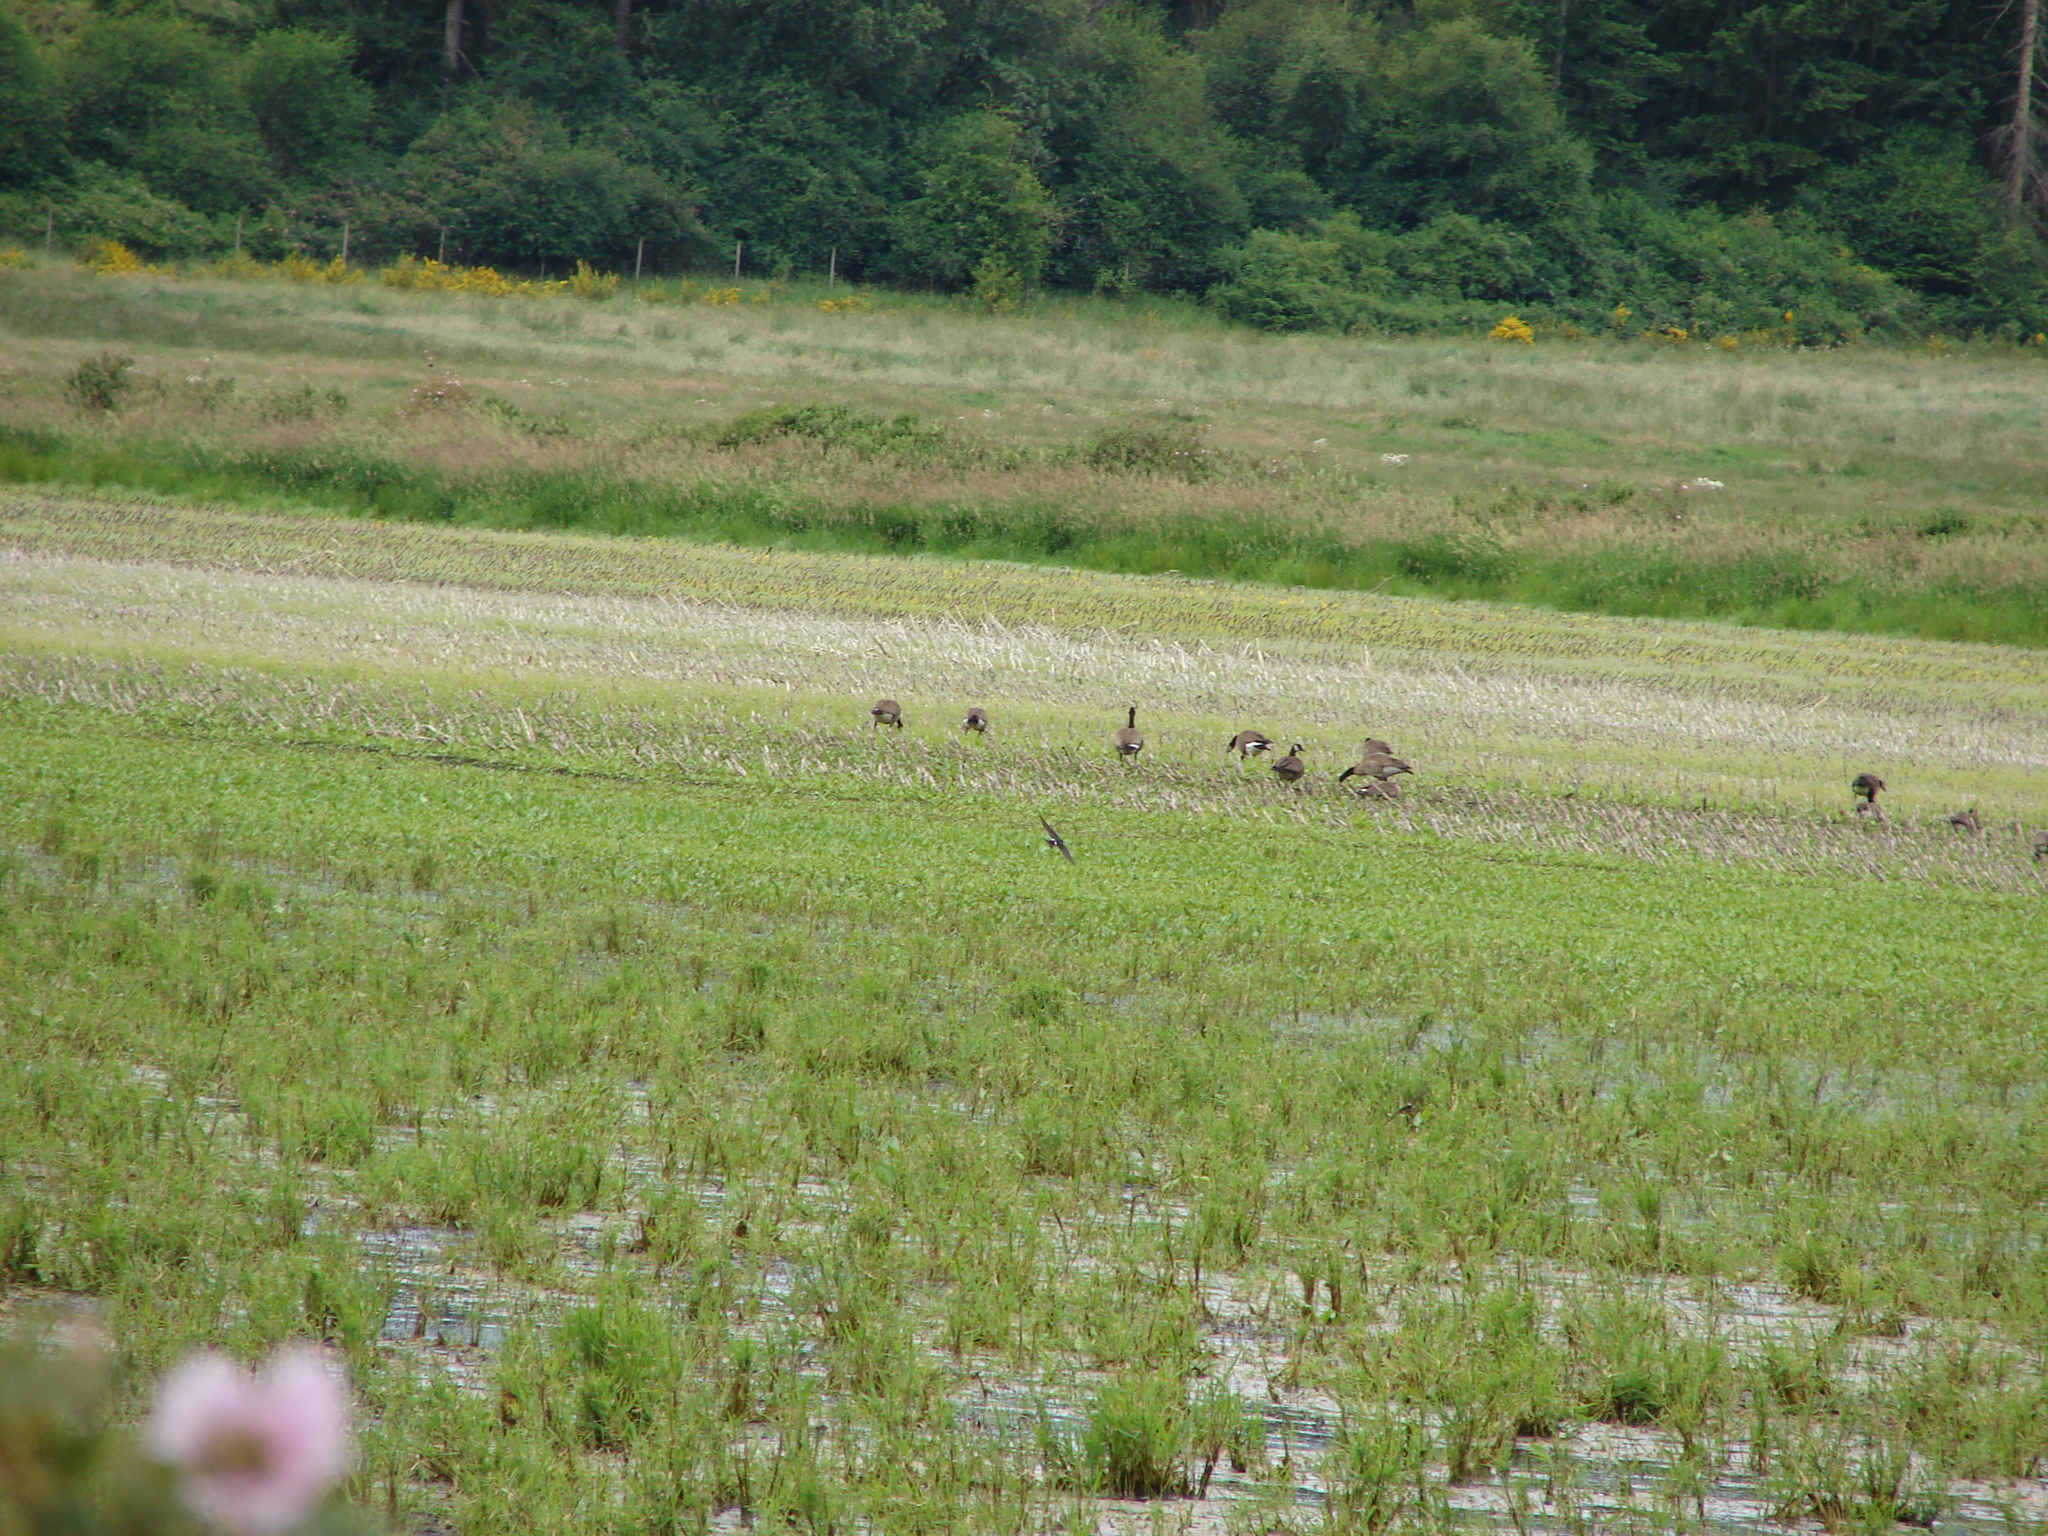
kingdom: Animalia
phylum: Chordata
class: Aves
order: Passeriformes
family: Hirundinidae
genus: Tachycineta
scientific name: Tachycineta thalassina
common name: Violet-green swallow
